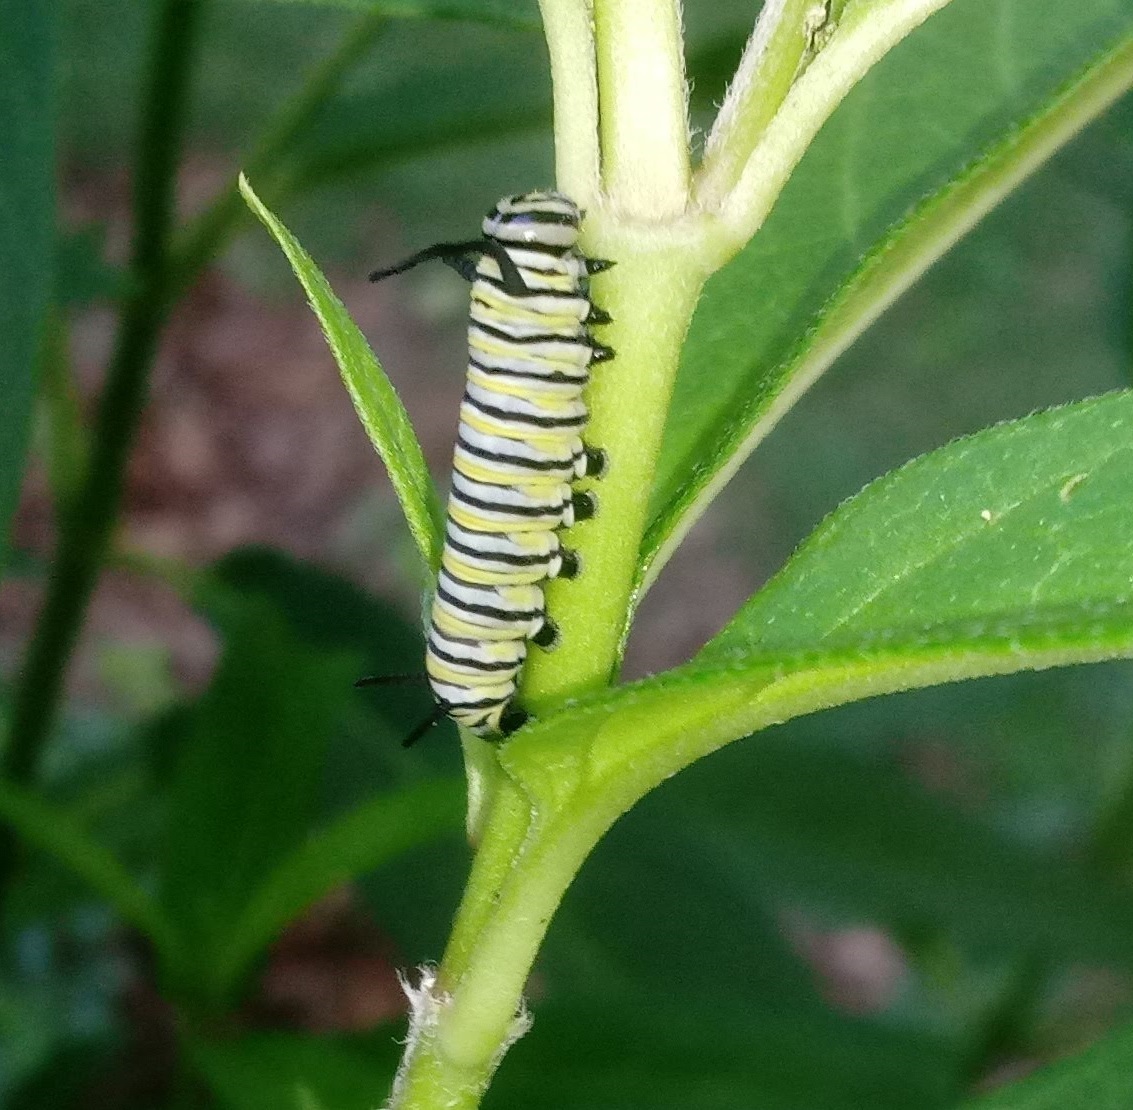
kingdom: Animalia
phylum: Arthropoda
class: Insecta
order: Lepidoptera
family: Nymphalidae
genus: Danaus
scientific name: Danaus plexippus
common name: Monarch
